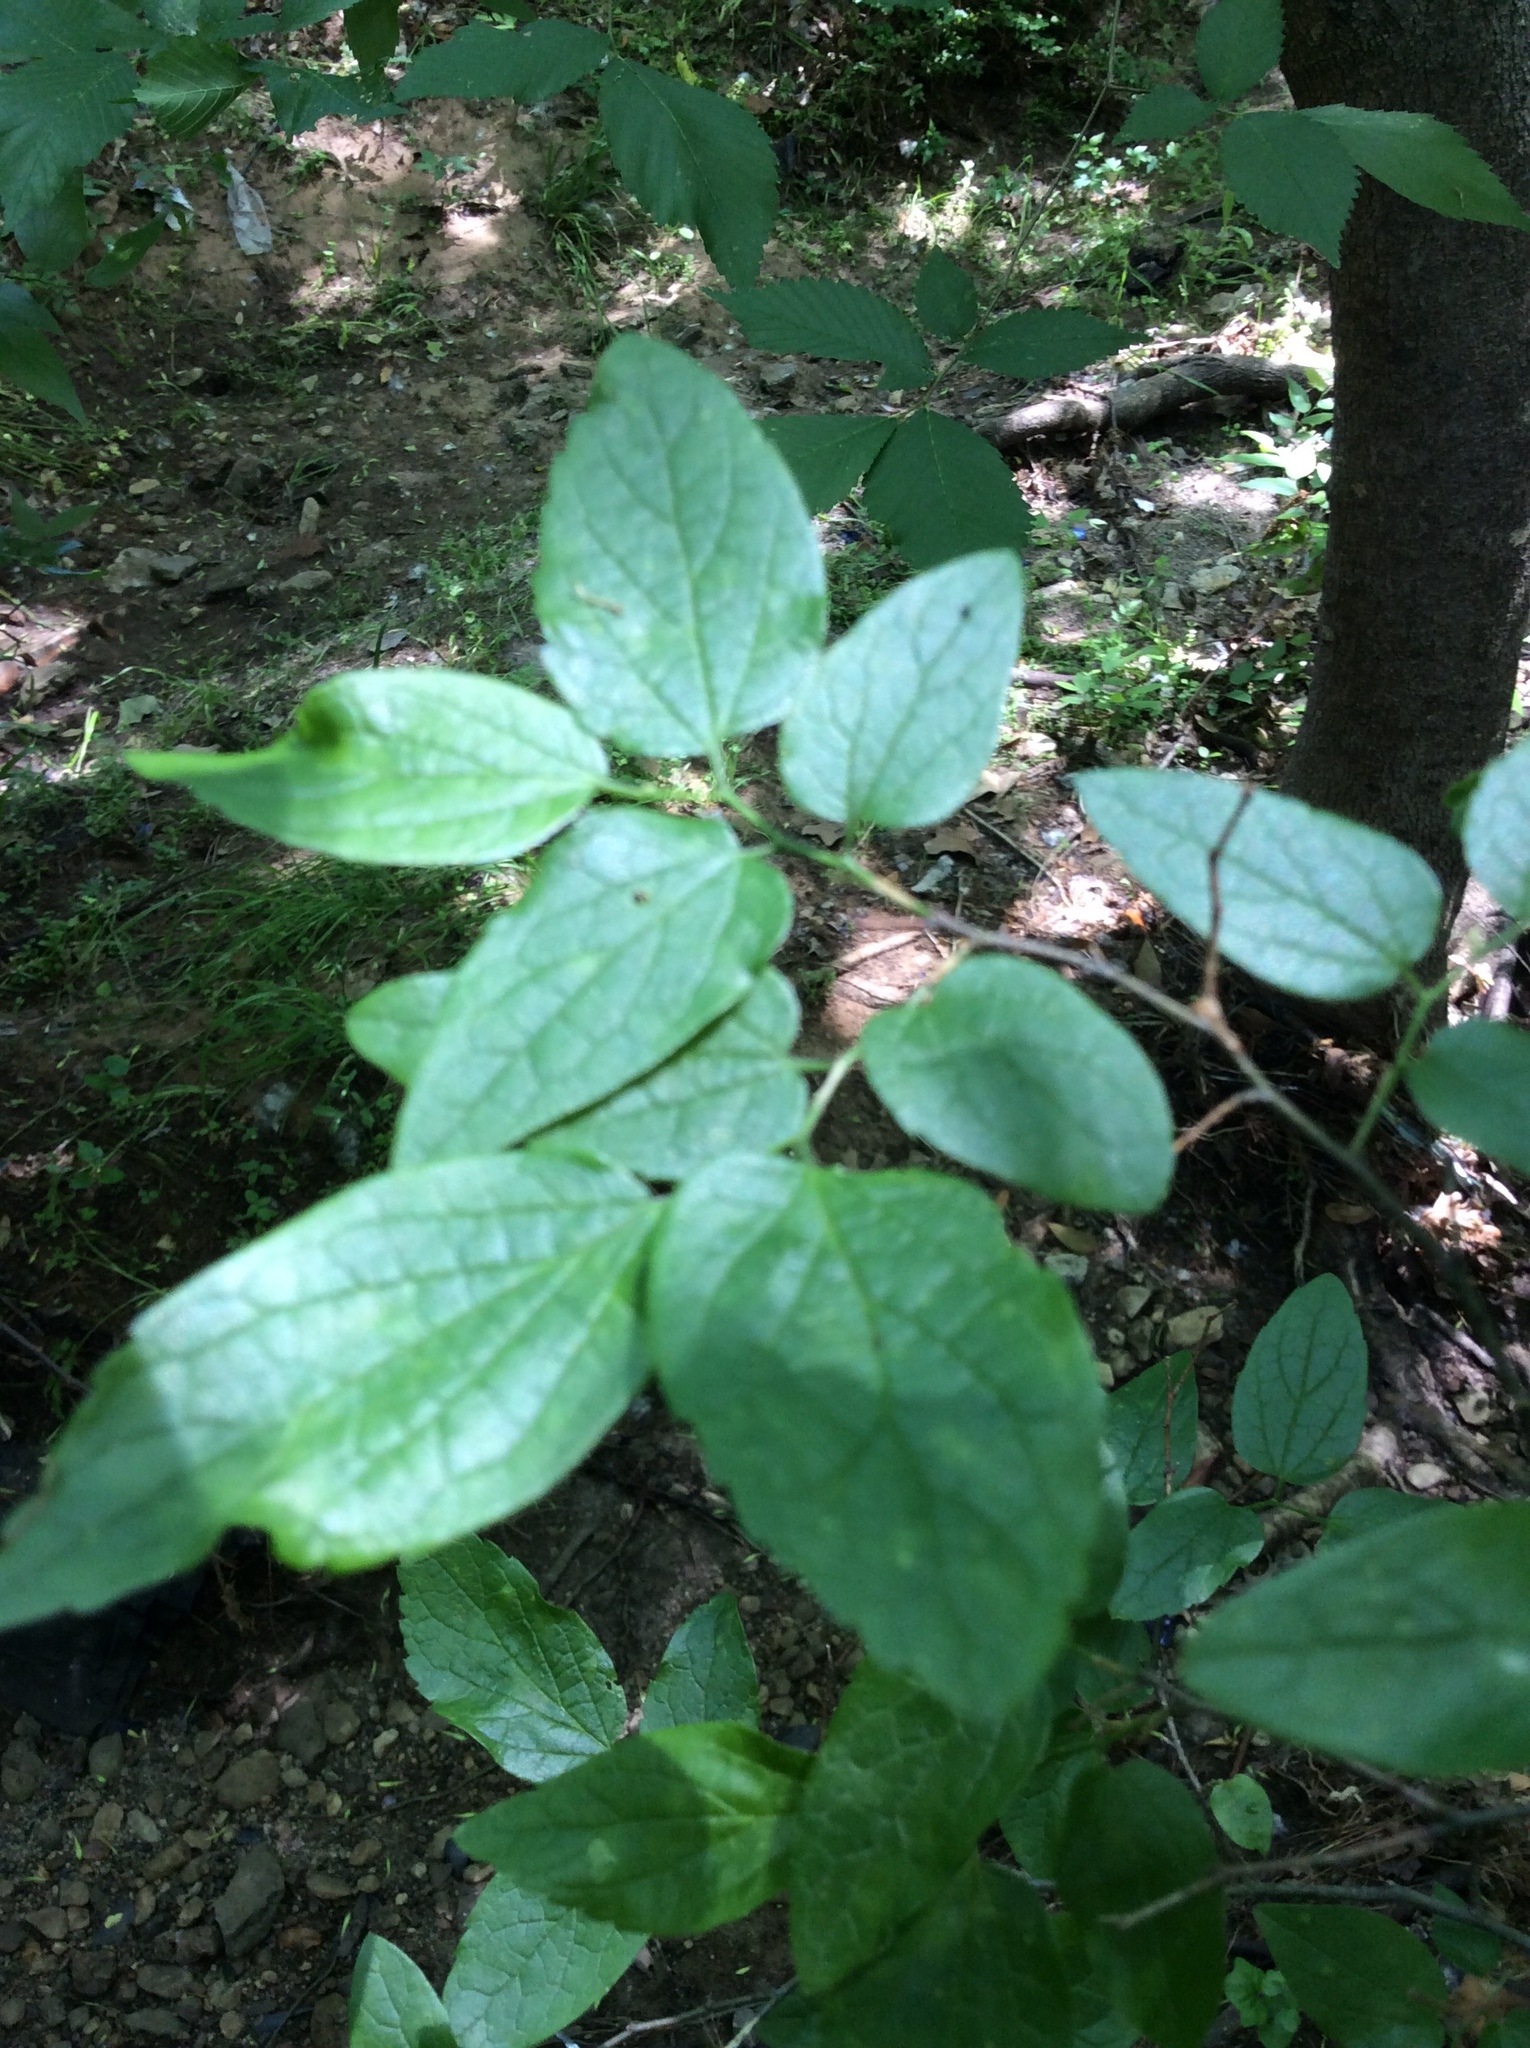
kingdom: Plantae
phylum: Tracheophyta
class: Magnoliopsida
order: Rosales
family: Cannabaceae
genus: Celtis
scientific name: Celtis laevigata
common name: Sugarberry
